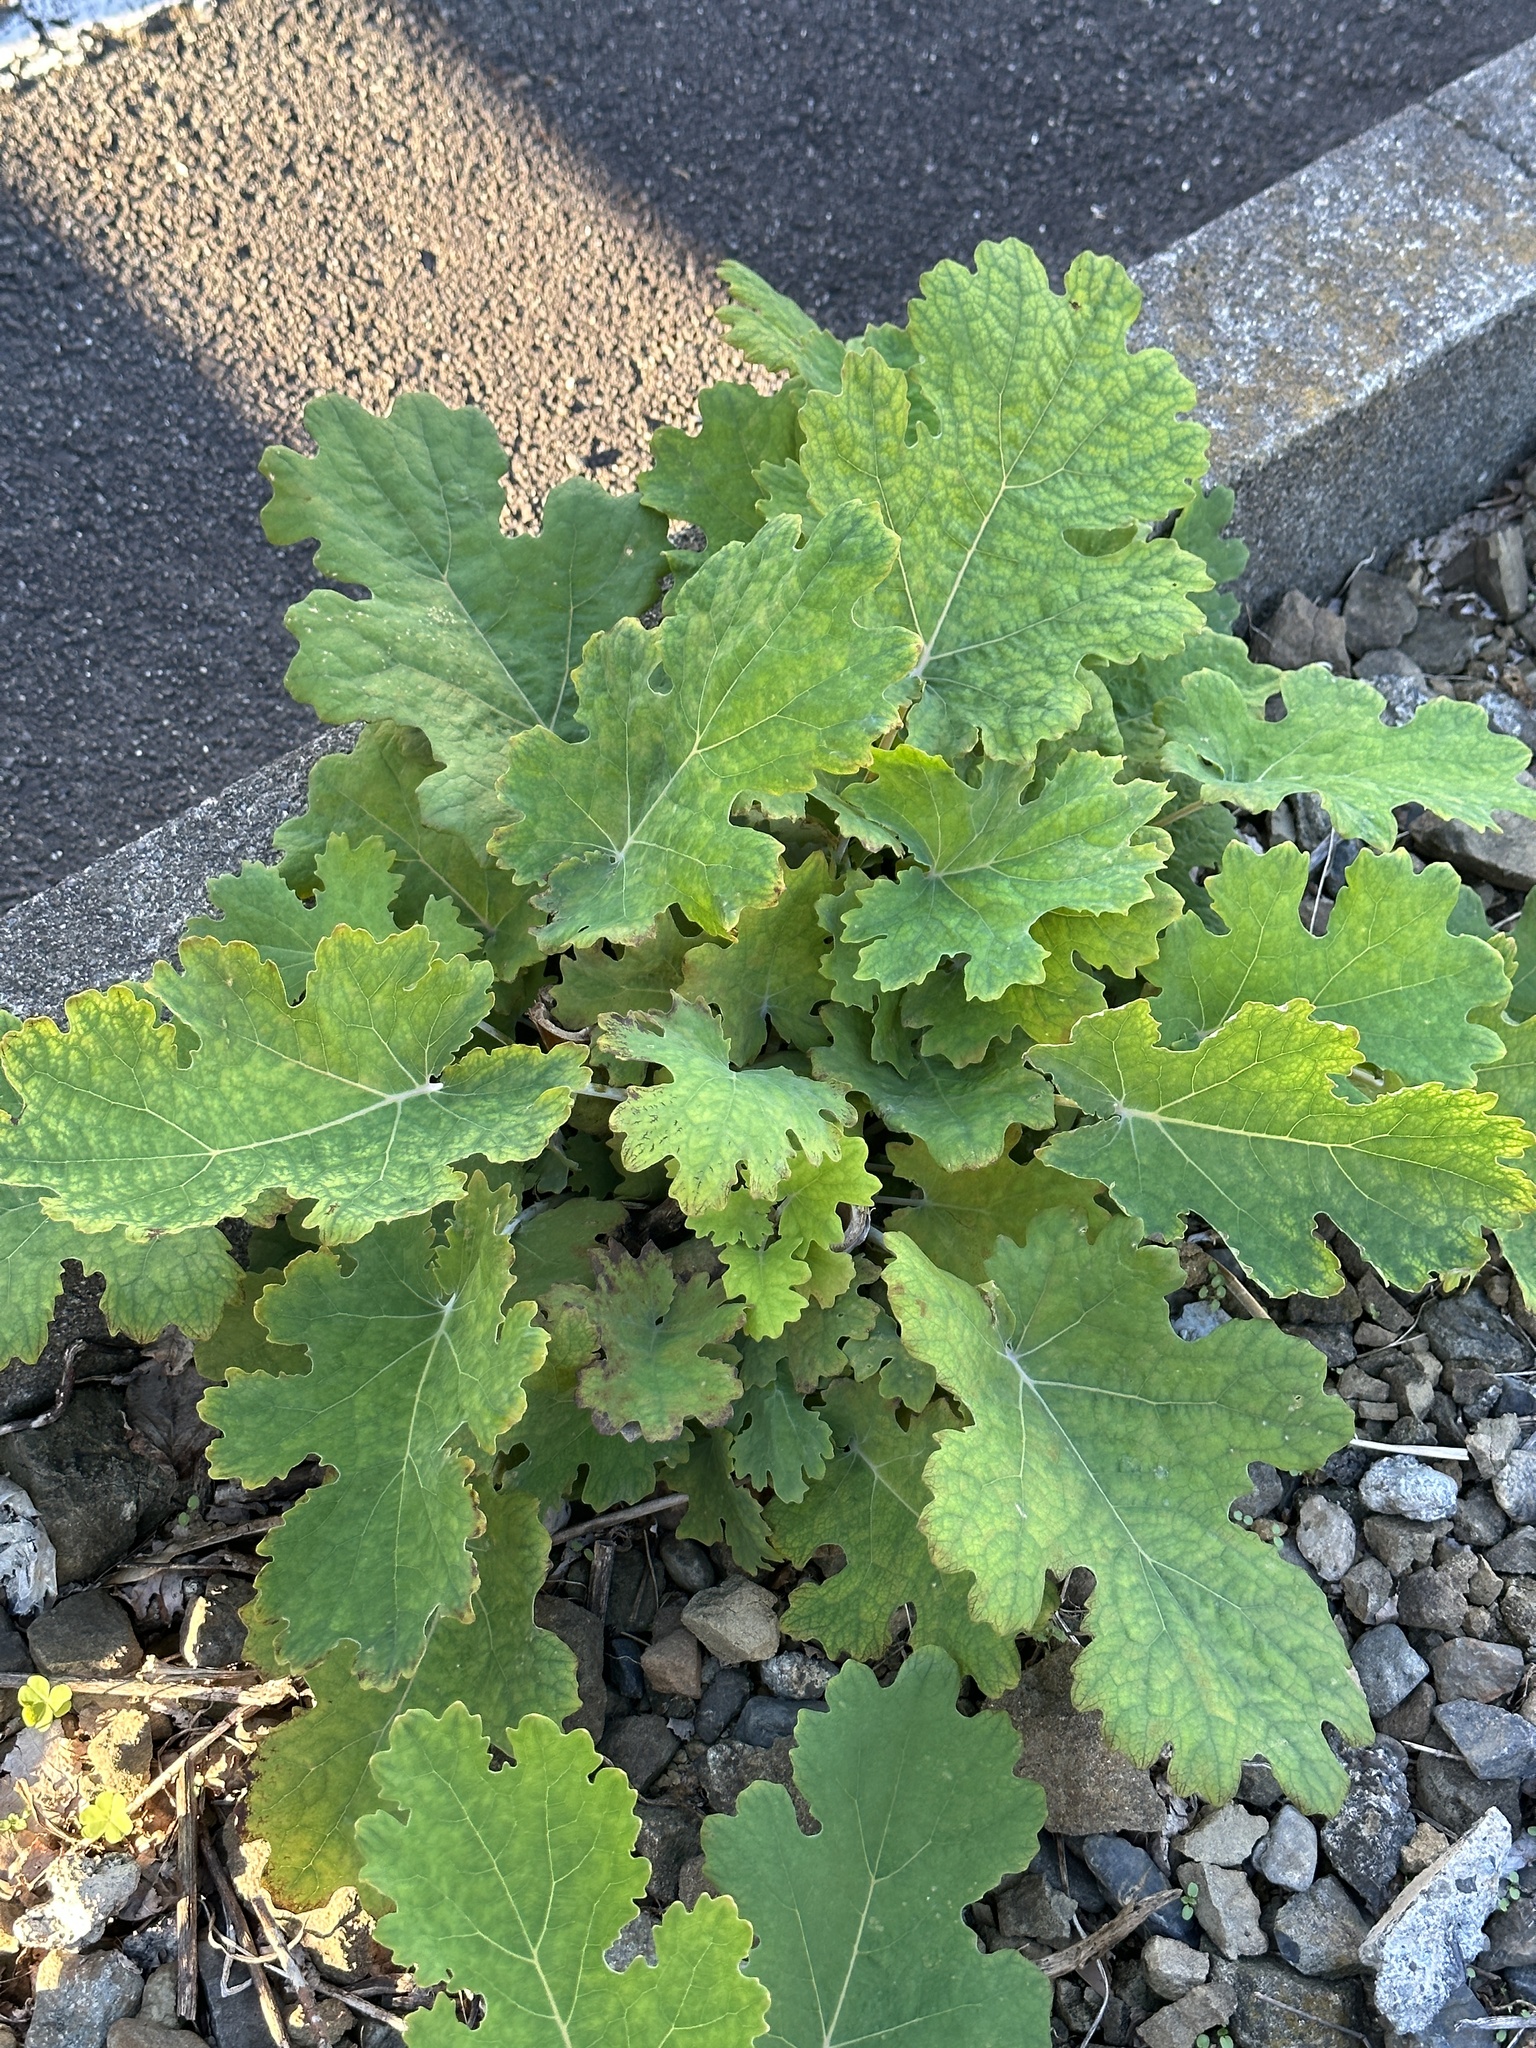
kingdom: Plantae
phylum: Tracheophyta
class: Magnoliopsida
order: Ranunculales
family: Papaveraceae
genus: Macleaya
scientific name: Macleaya cordata
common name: Plume poppy
